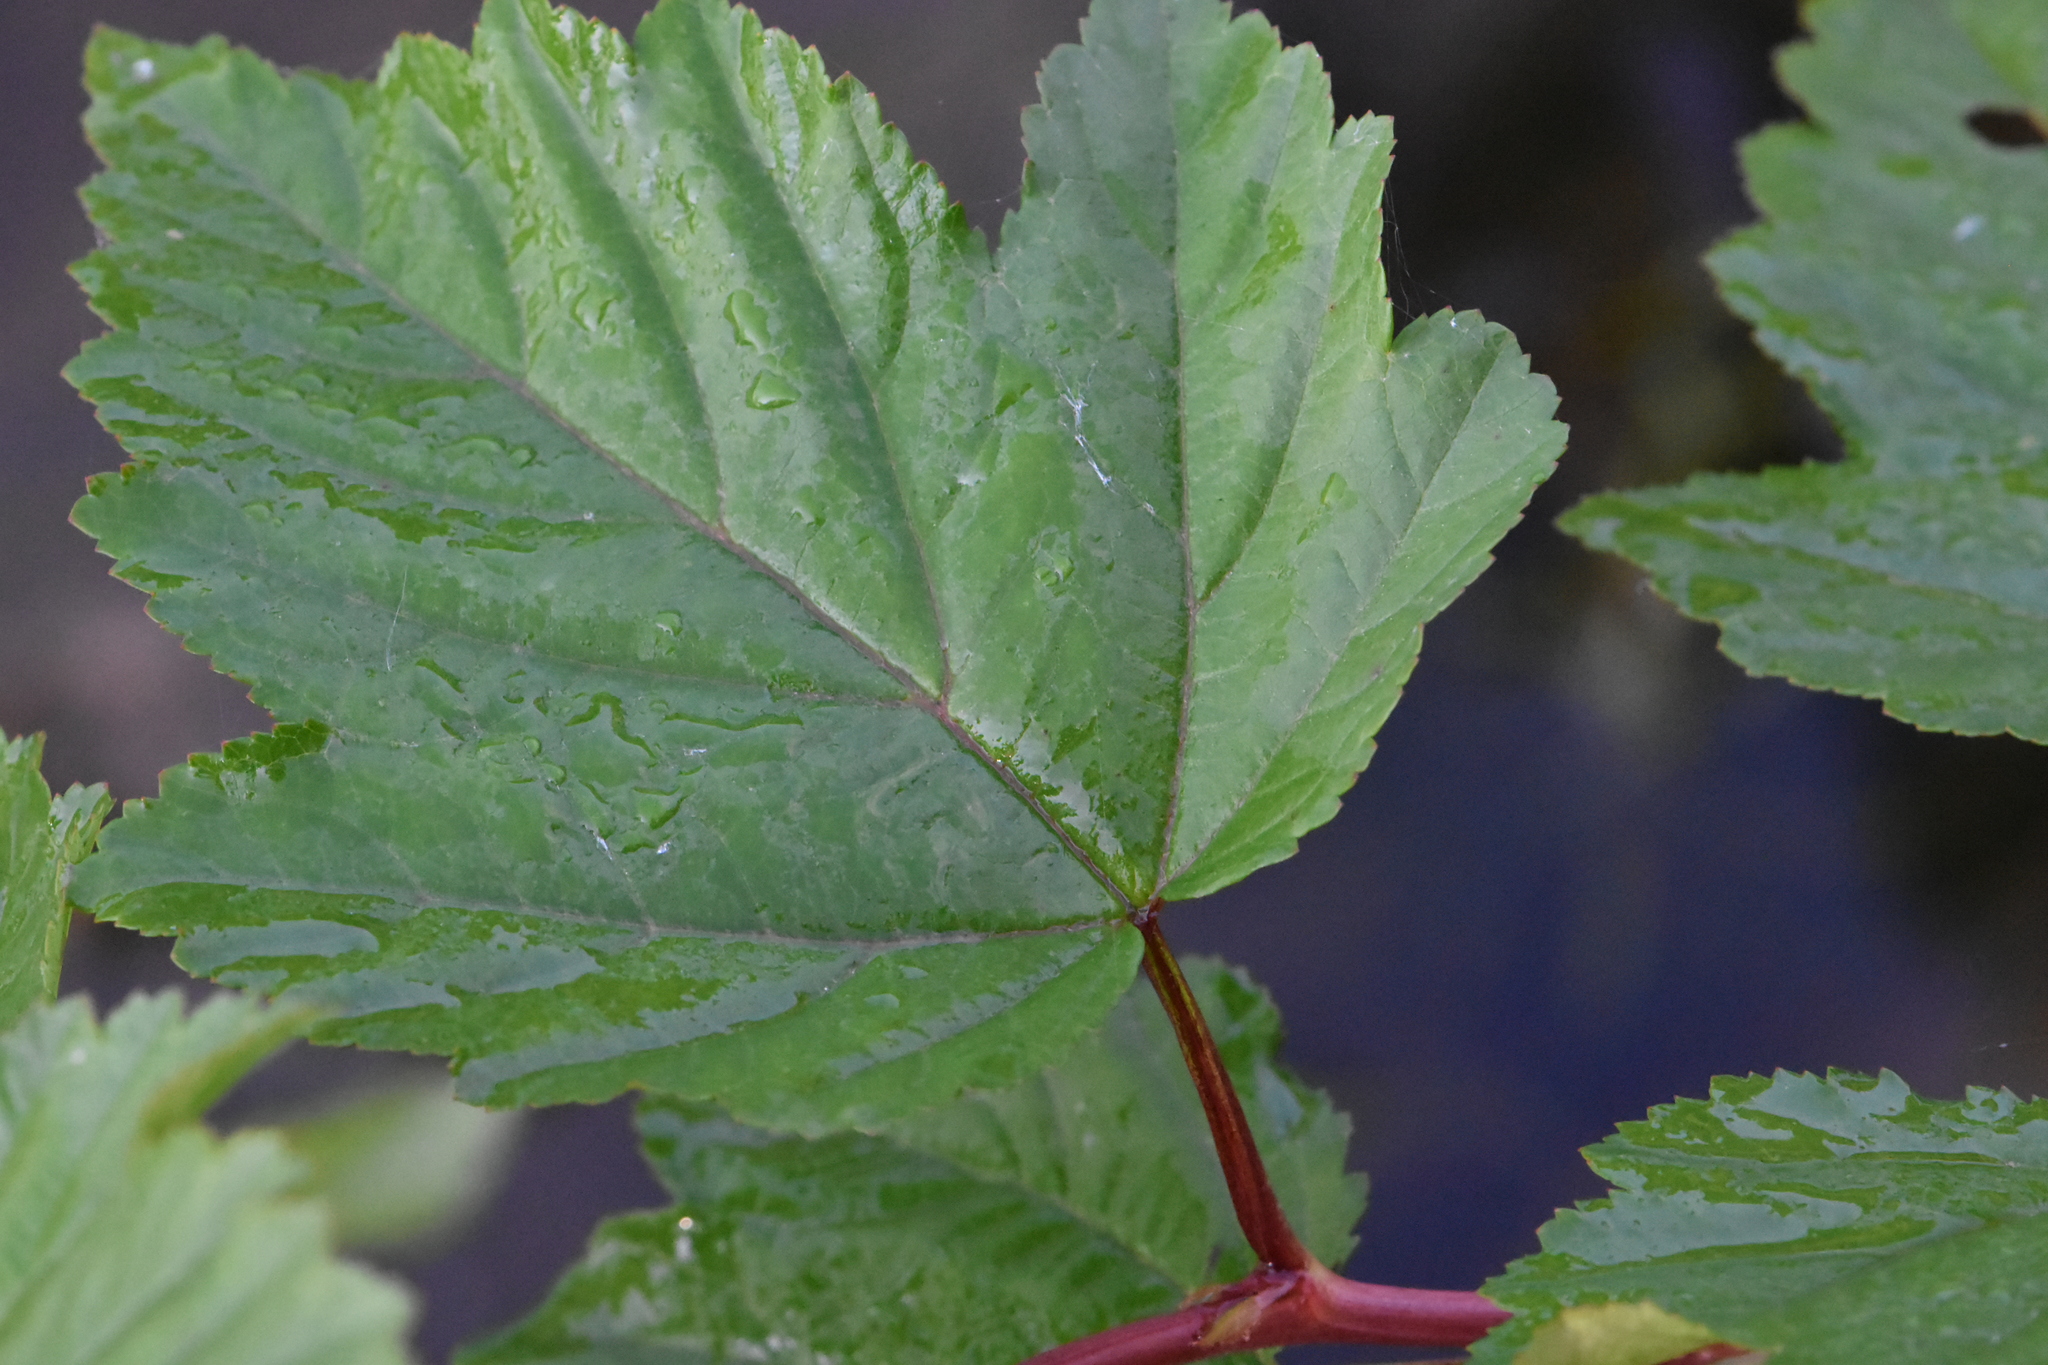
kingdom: Plantae
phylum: Tracheophyta
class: Magnoliopsida
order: Rosales
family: Rosaceae
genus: Physocarpus
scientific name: Physocarpus opulifolius
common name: Ninebark
